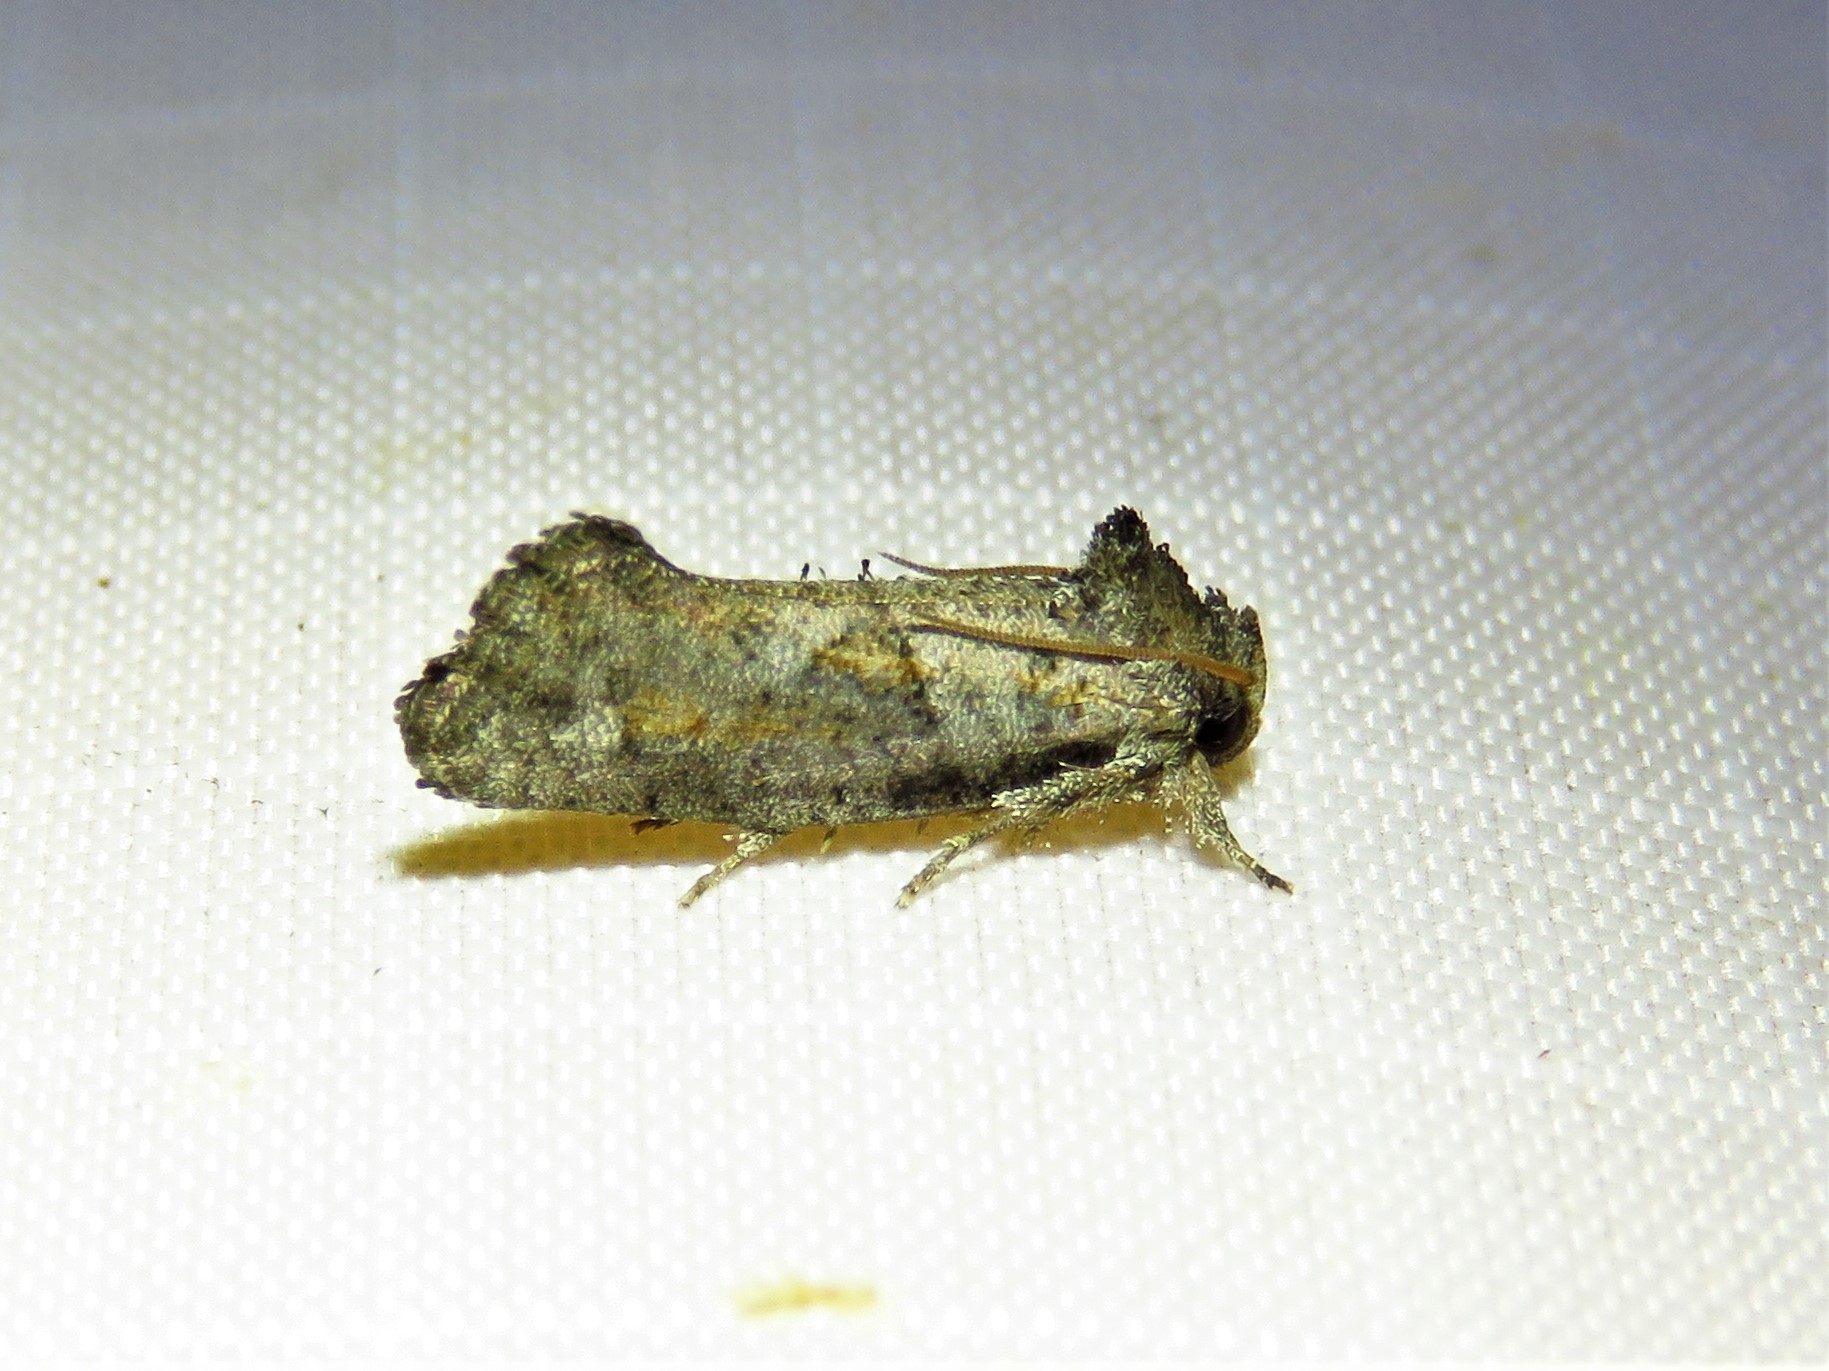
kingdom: Animalia
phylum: Arthropoda
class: Insecta
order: Lepidoptera
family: Tineidae
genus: Acrolophus
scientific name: Acrolophus piger
